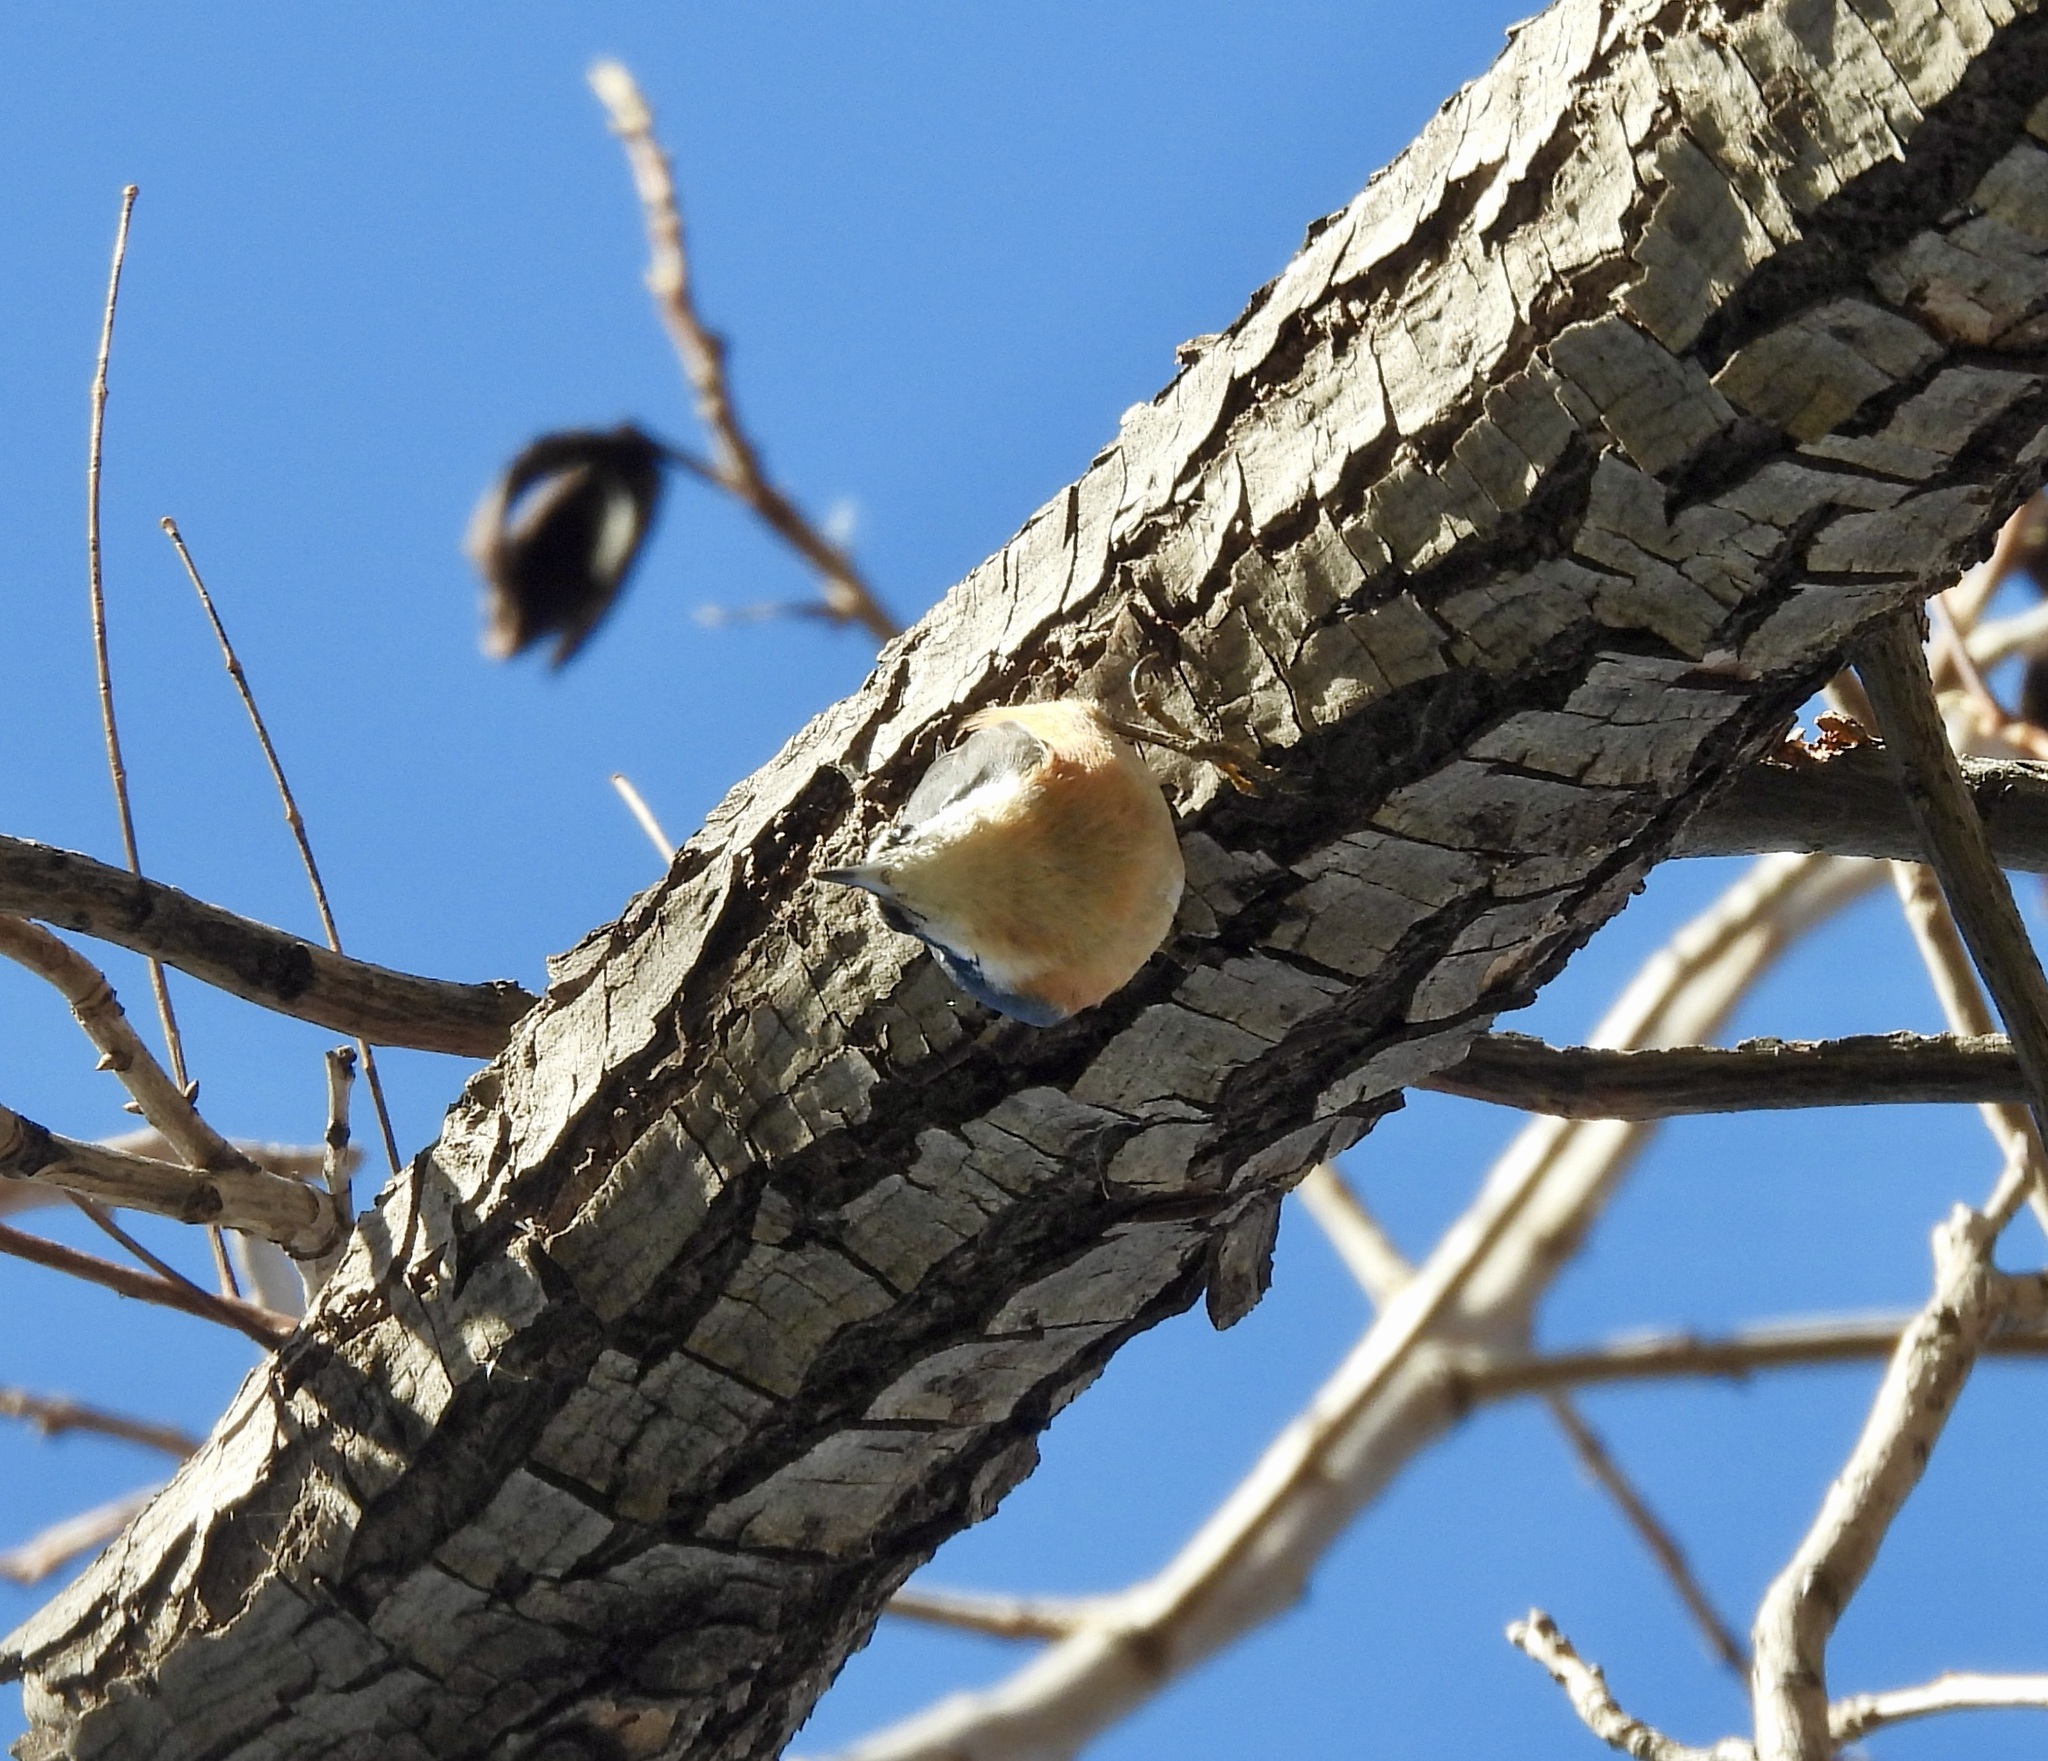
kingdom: Animalia
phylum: Chordata
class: Aves
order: Passeriformes
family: Sittidae
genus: Sitta
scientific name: Sitta canadensis
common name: Red-breasted nuthatch
